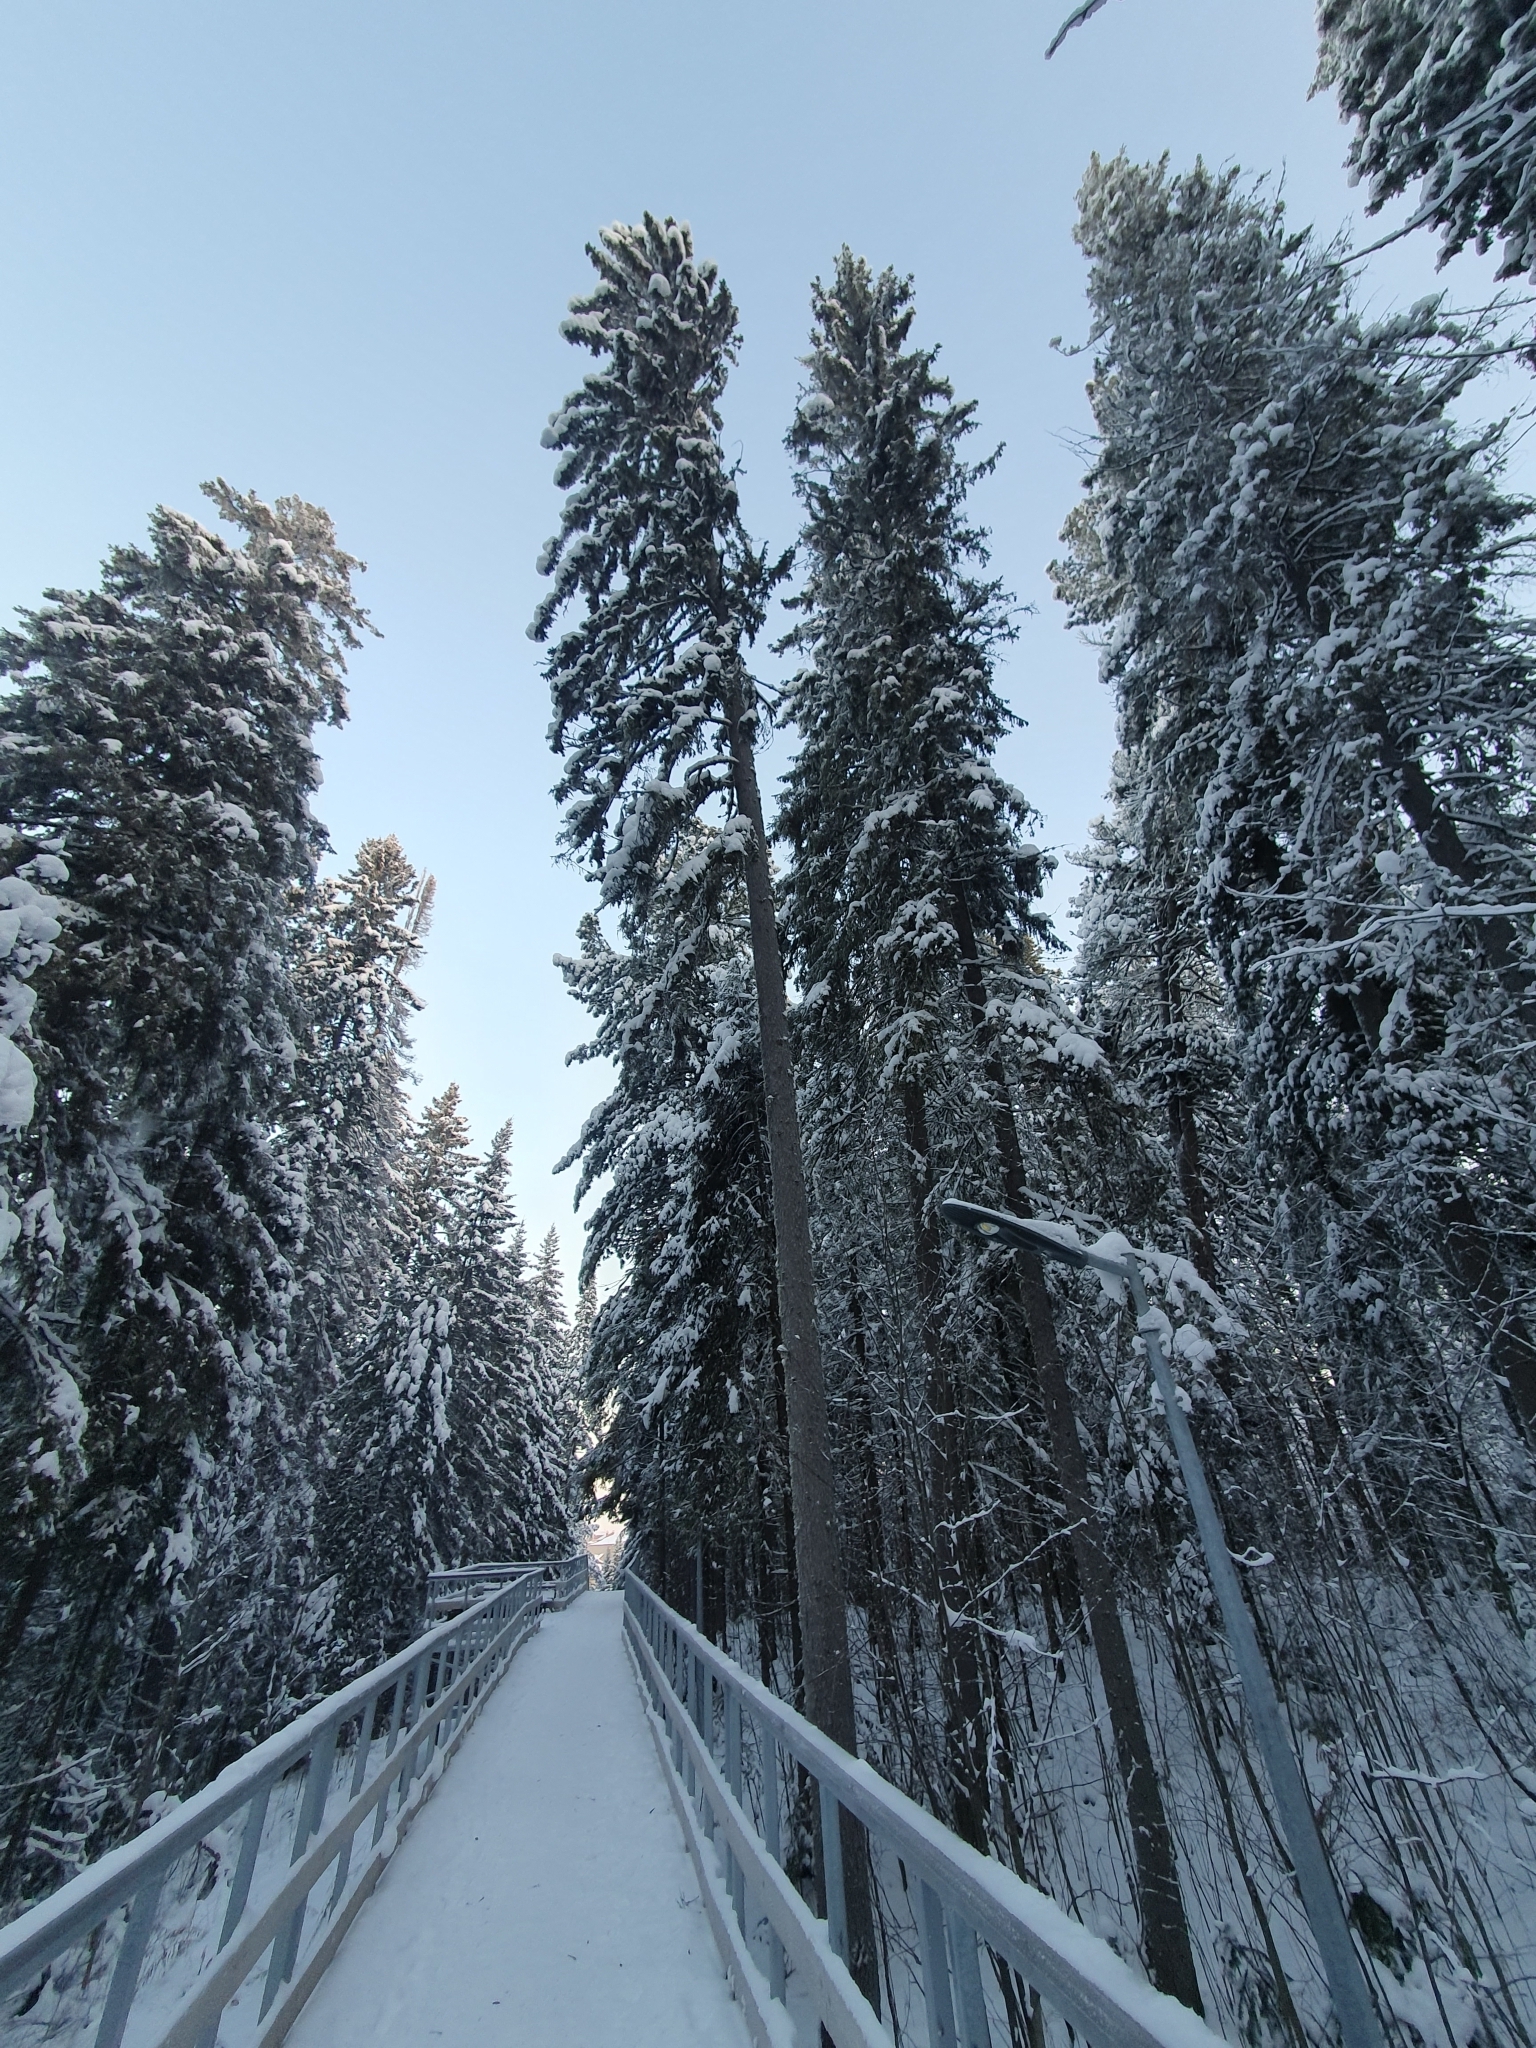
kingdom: Plantae
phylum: Tracheophyta
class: Pinopsida
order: Pinales
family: Pinaceae
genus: Picea
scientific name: Picea obovata
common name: Siberian spruce
